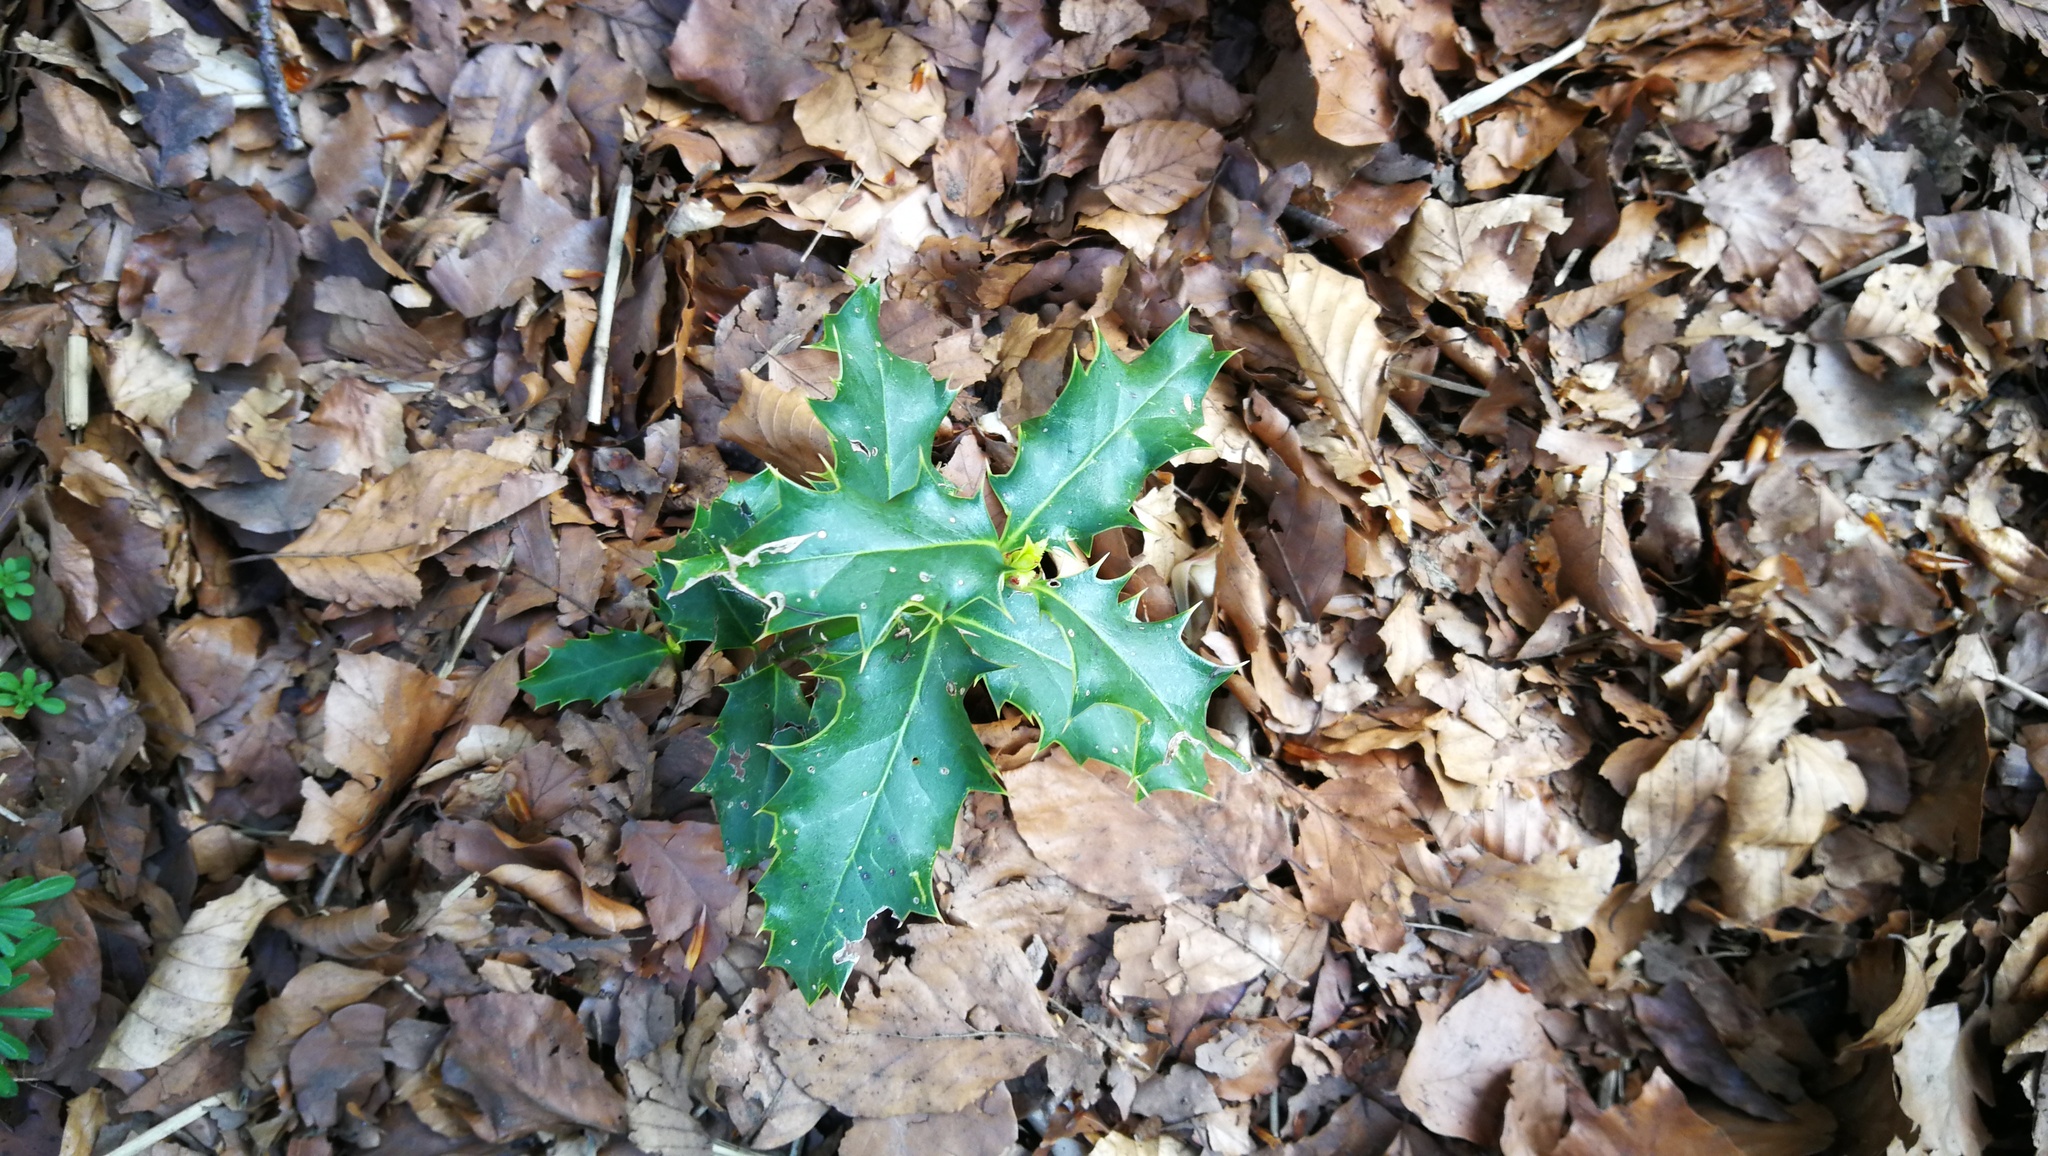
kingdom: Plantae
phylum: Tracheophyta
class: Magnoliopsida
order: Aquifoliales
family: Aquifoliaceae
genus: Ilex
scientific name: Ilex aquifolium
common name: English holly
